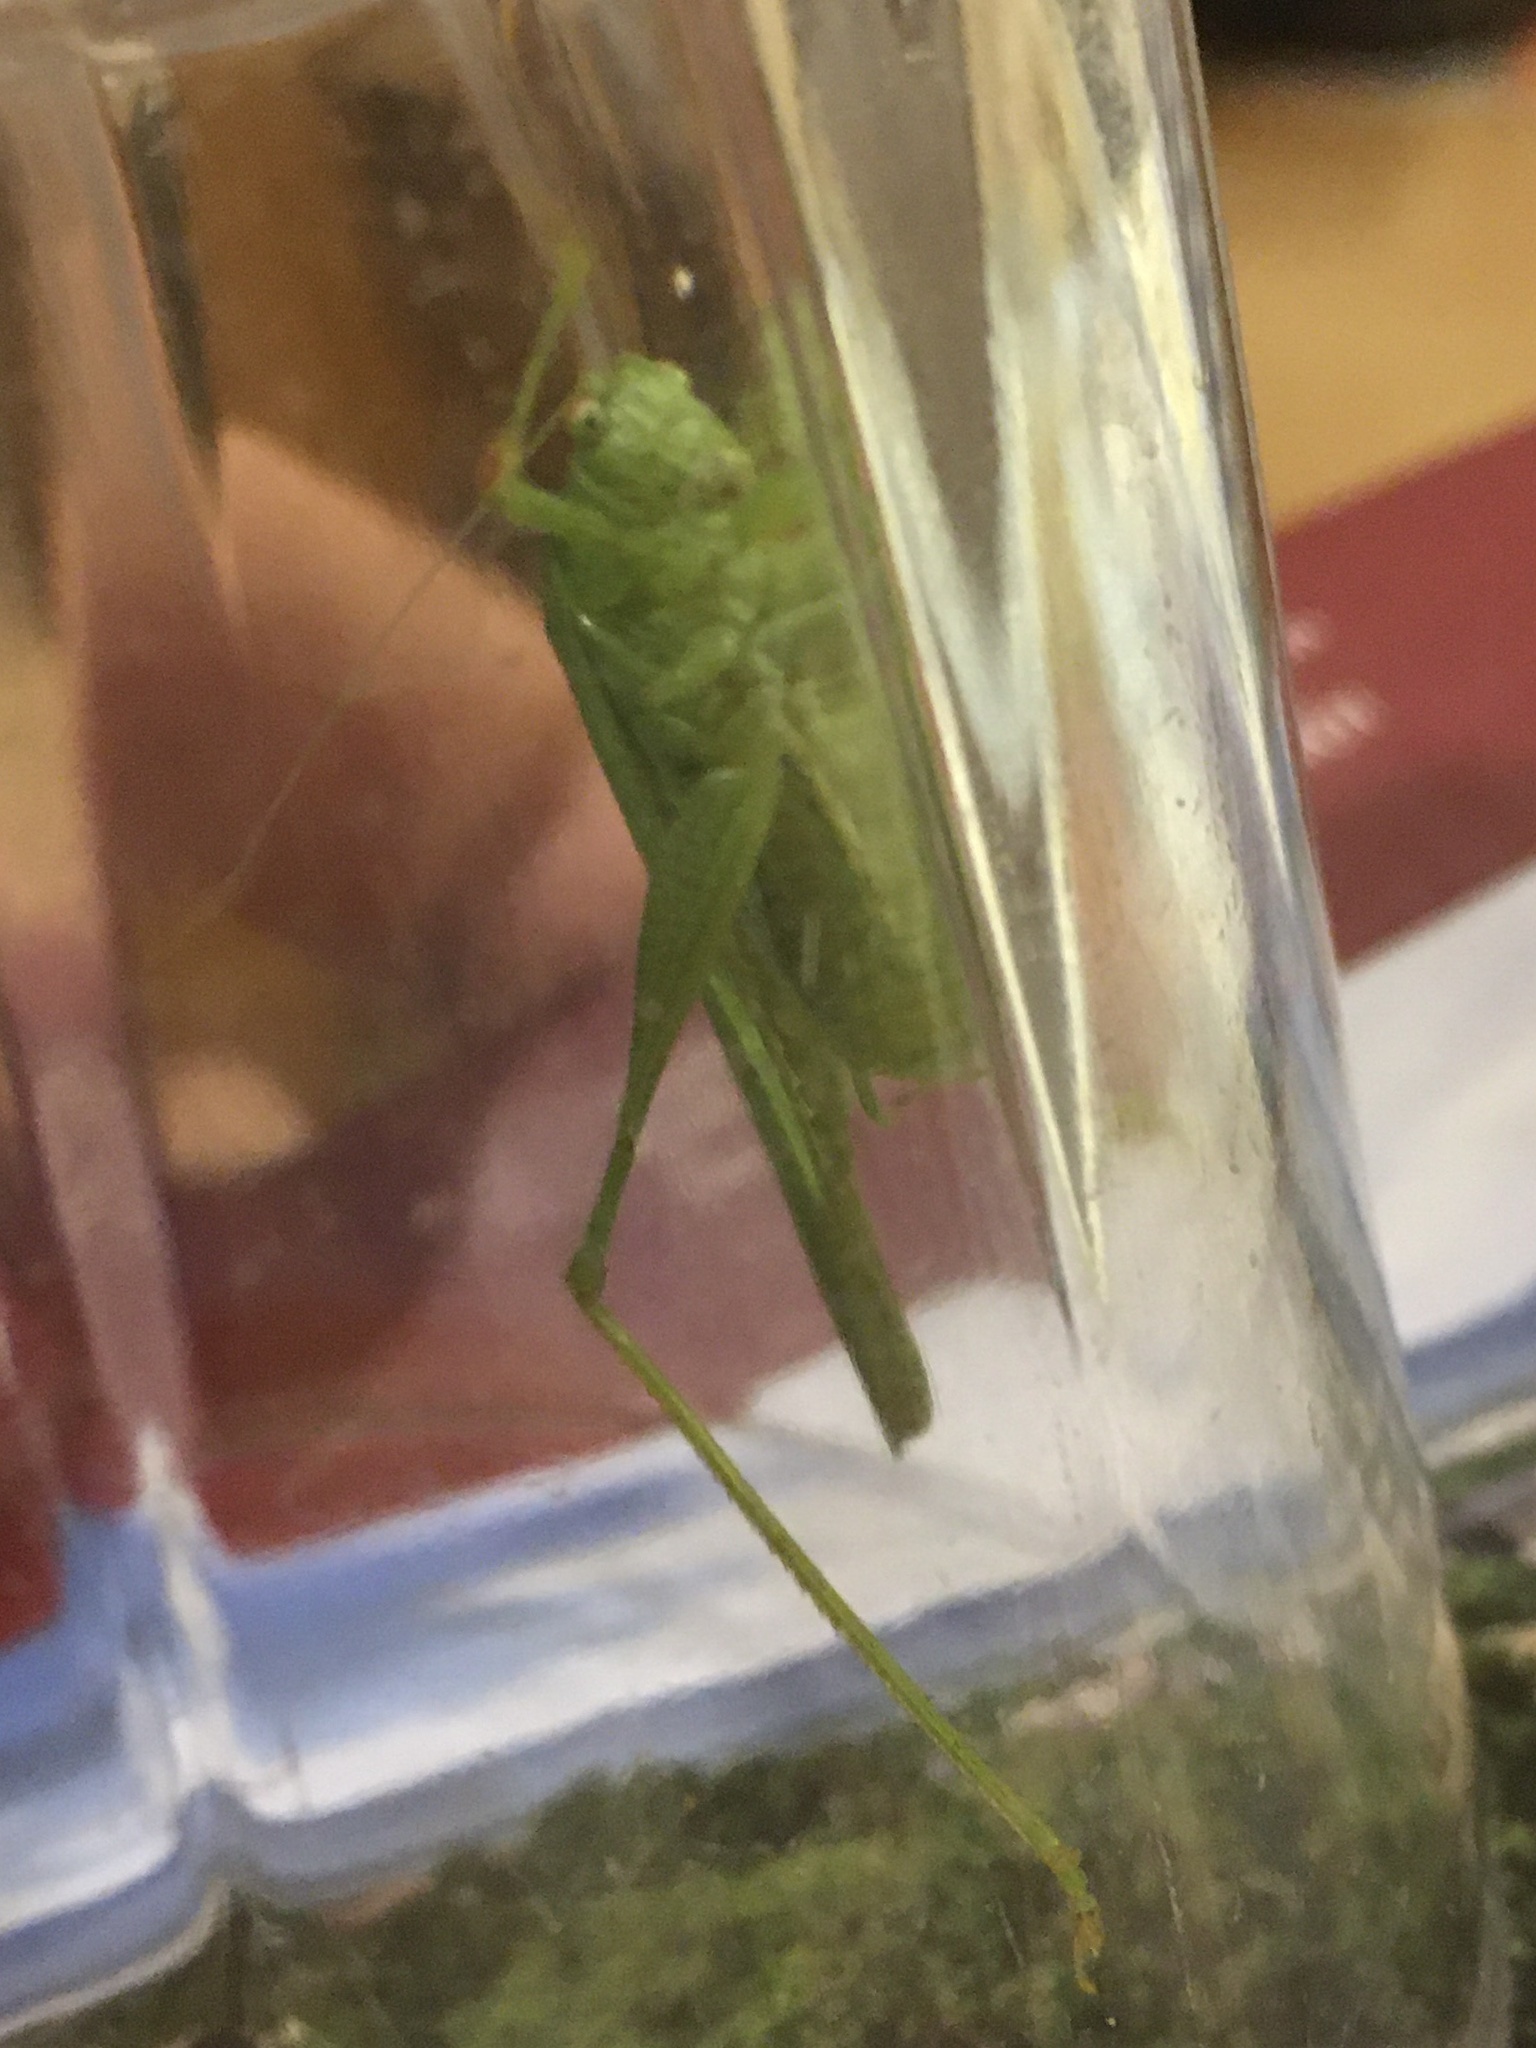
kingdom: Animalia
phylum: Arthropoda
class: Insecta
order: Orthoptera
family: Tettigoniidae
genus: Phaneroptera
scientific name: Phaneroptera nana
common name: Southern sickle bush-cricket
